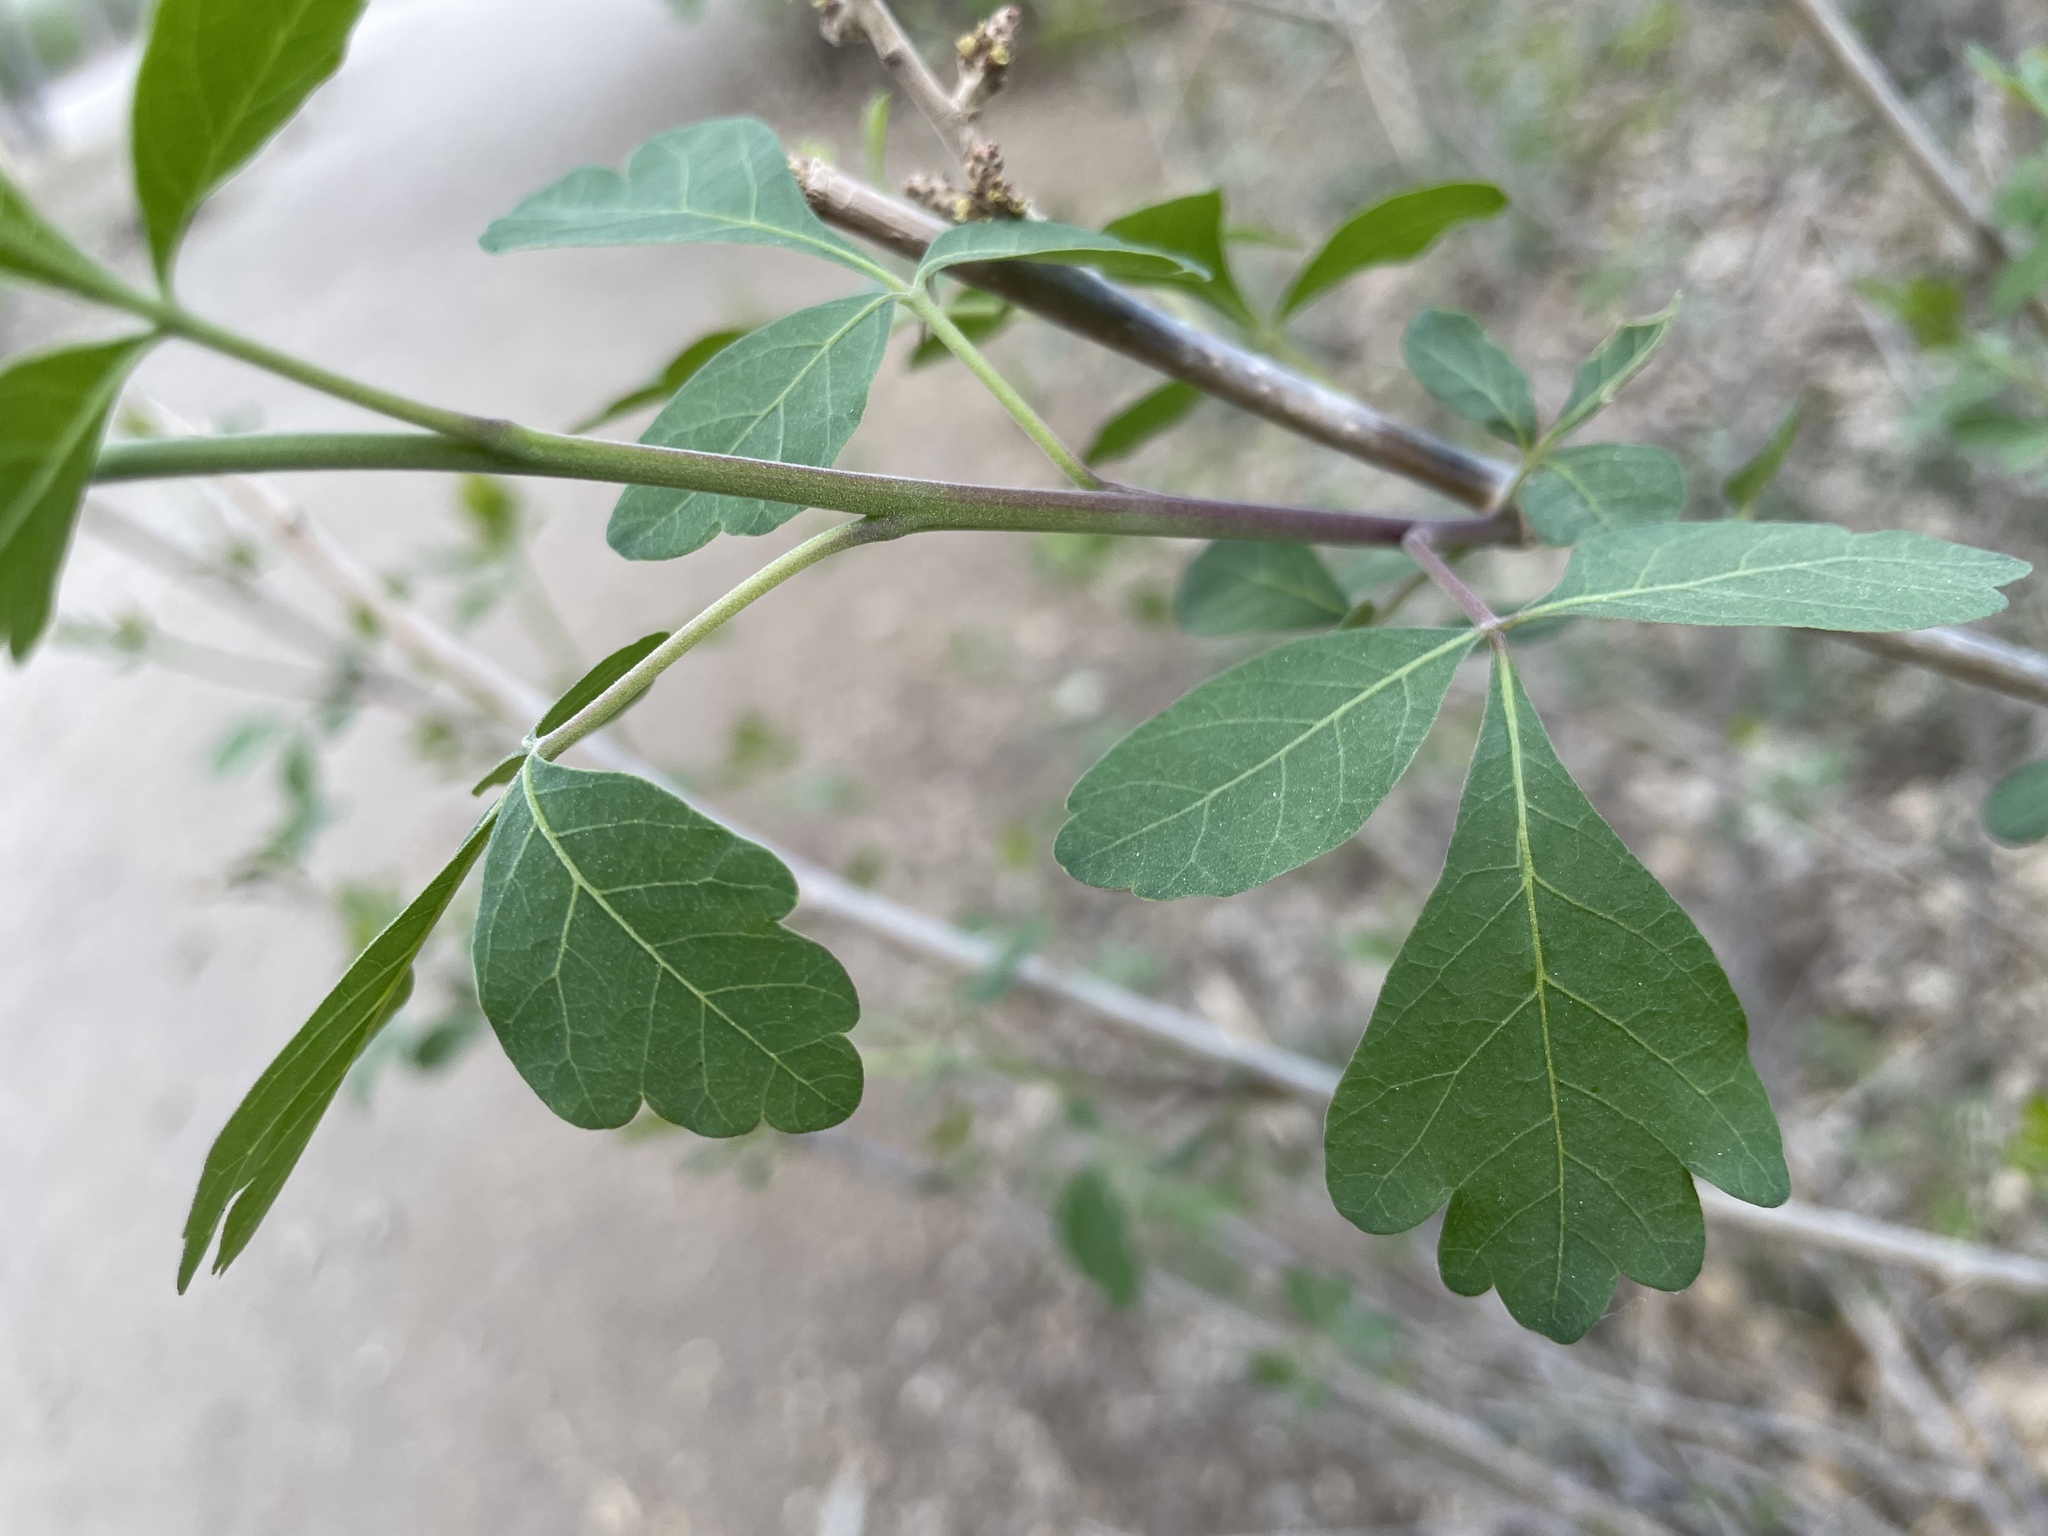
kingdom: Plantae
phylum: Tracheophyta
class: Magnoliopsida
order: Sapindales
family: Anacardiaceae
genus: Rhus
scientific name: Rhus trilobata
